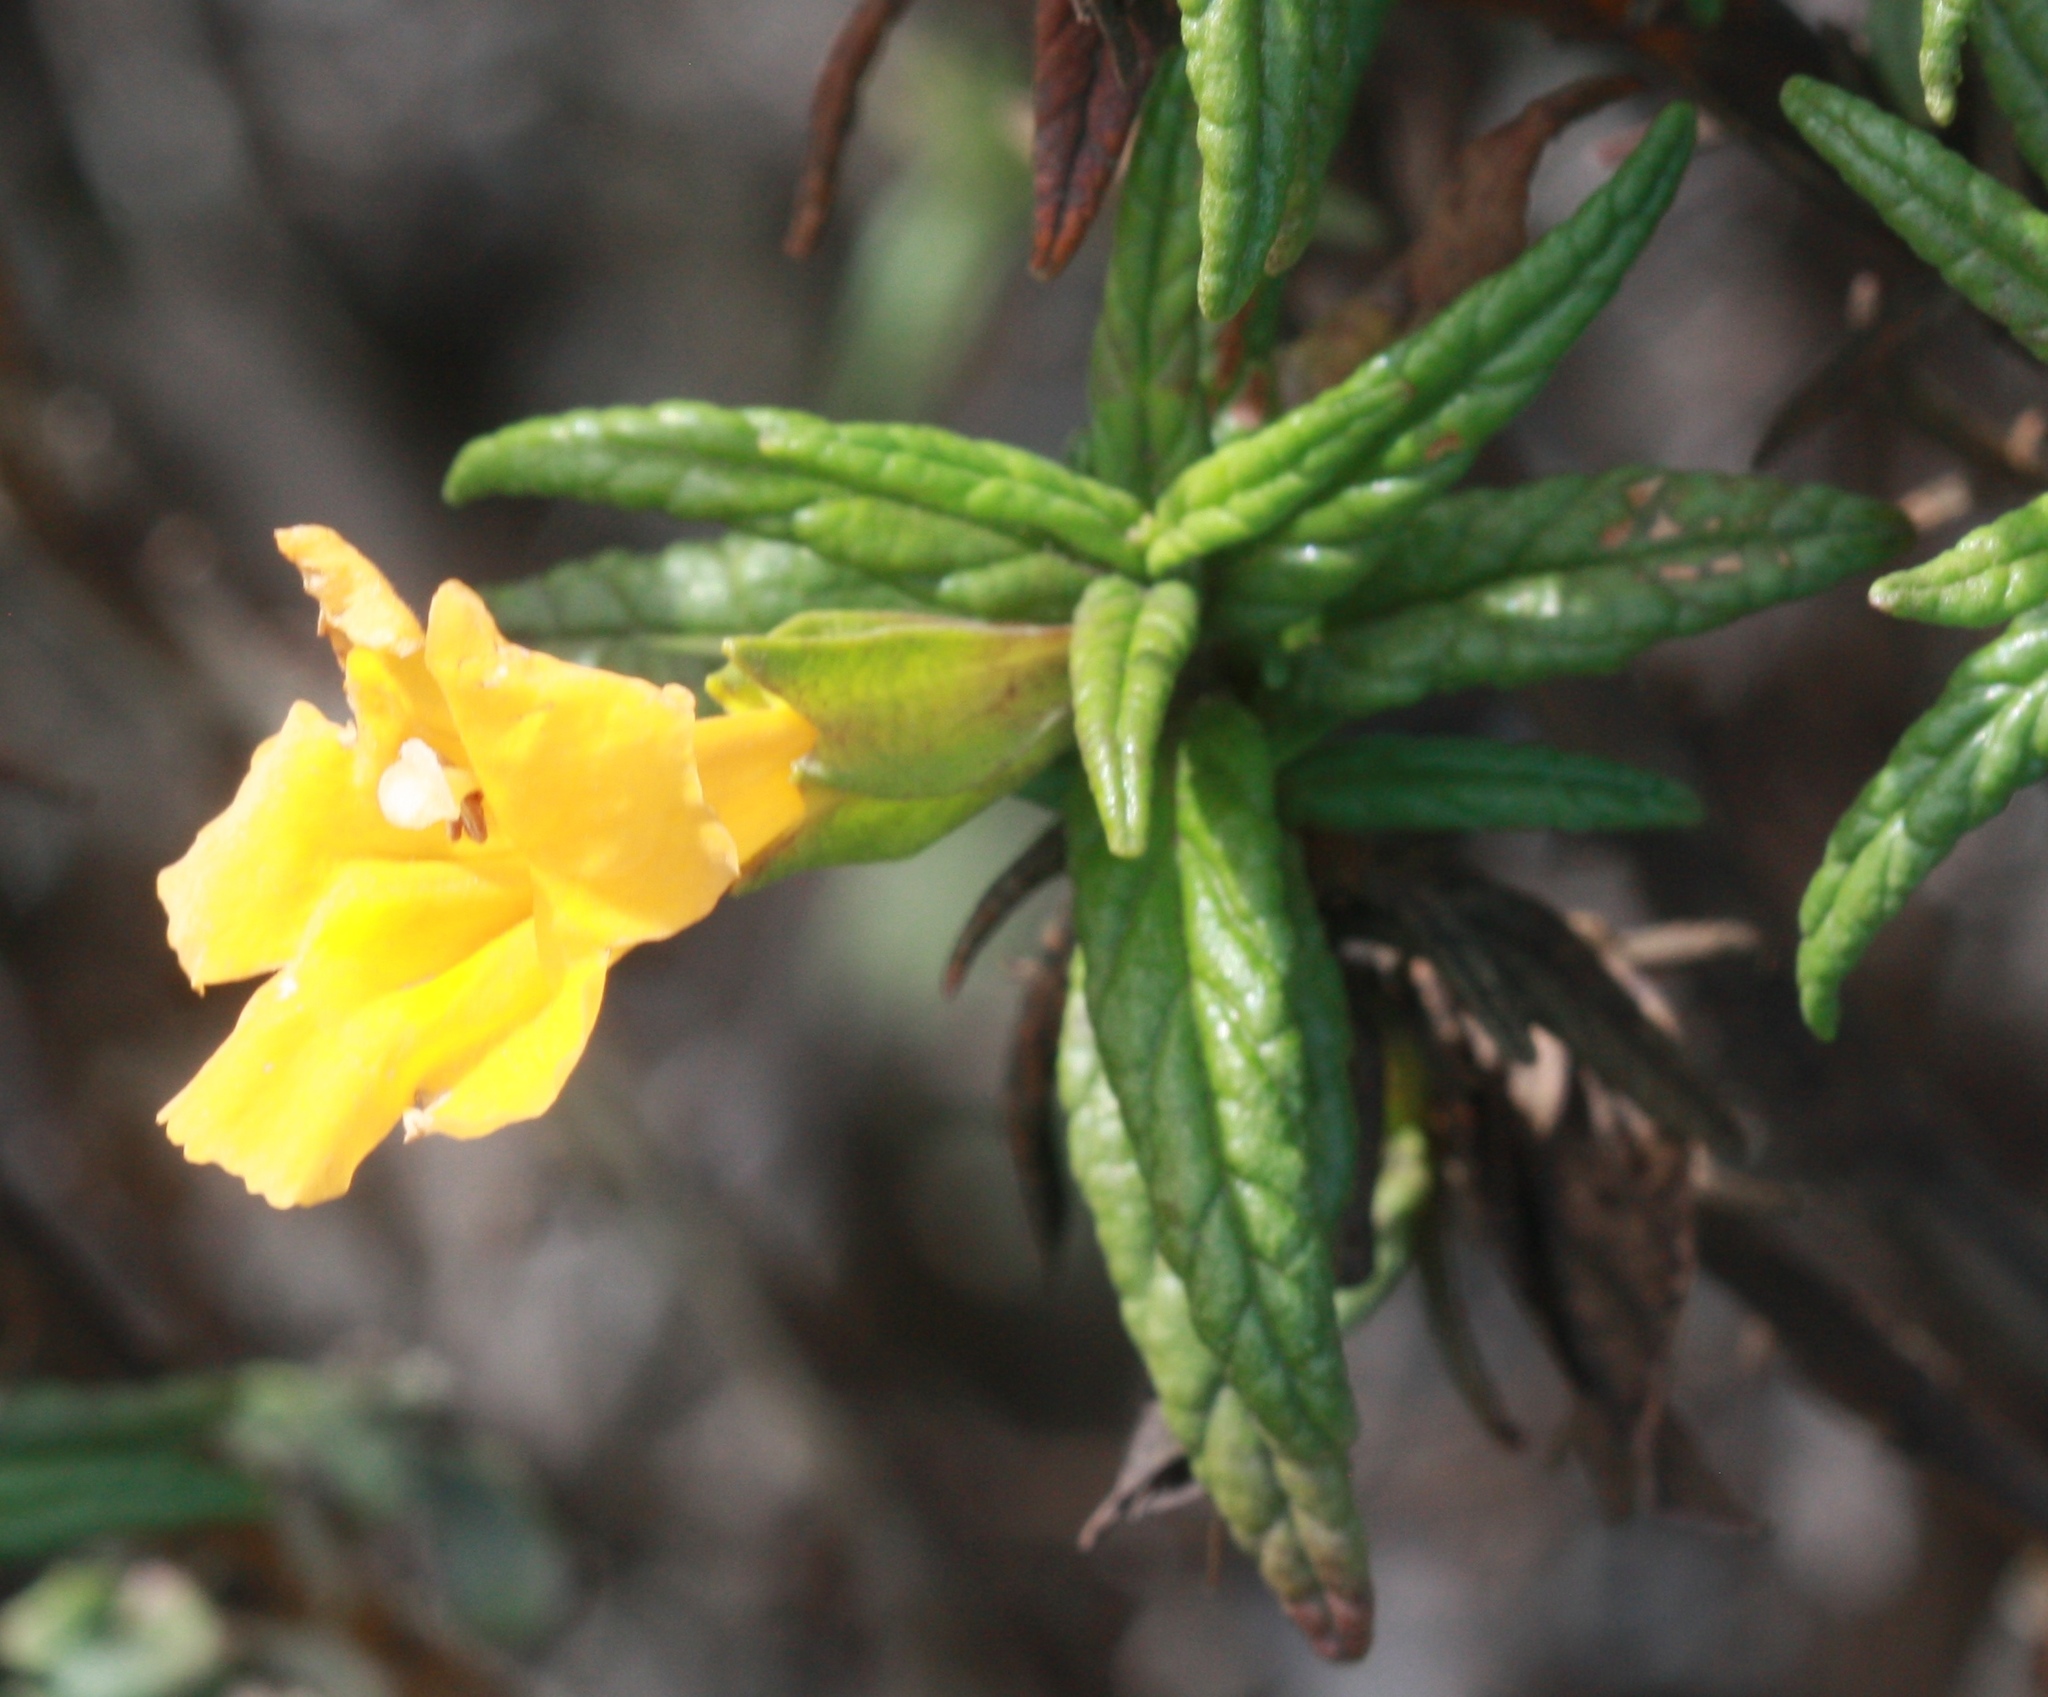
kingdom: Plantae
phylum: Tracheophyta
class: Magnoliopsida
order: Lamiales
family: Phrymaceae
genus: Diplacus
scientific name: Diplacus aurantiacus
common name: Bush monkey-flower
